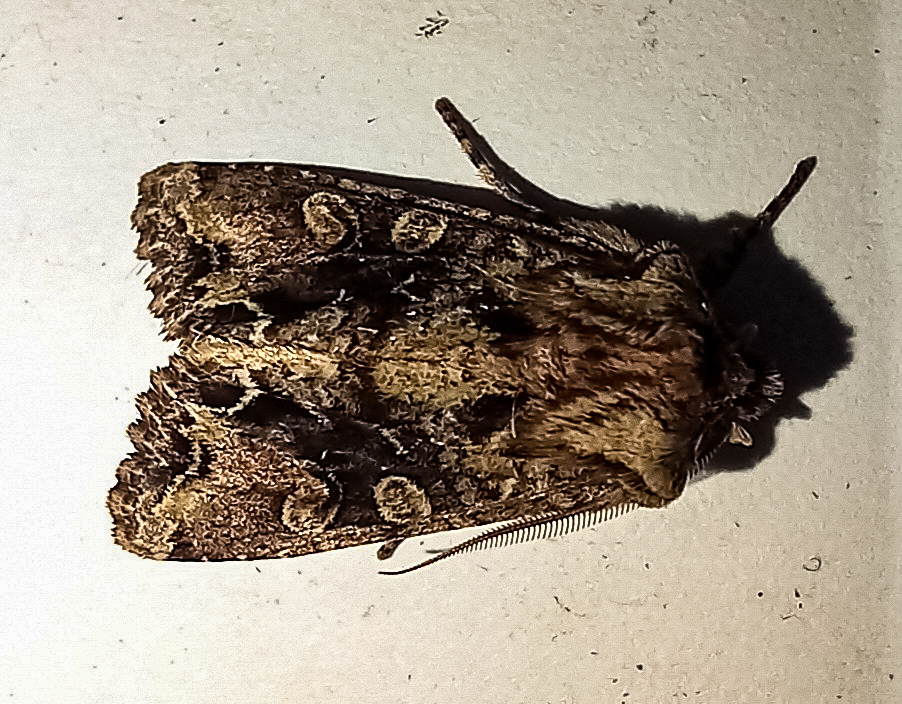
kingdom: Animalia
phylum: Arthropoda
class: Insecta
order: Lepidoptera
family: Noctuidae
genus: Ichneutica
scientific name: Ichneutica skelloni
